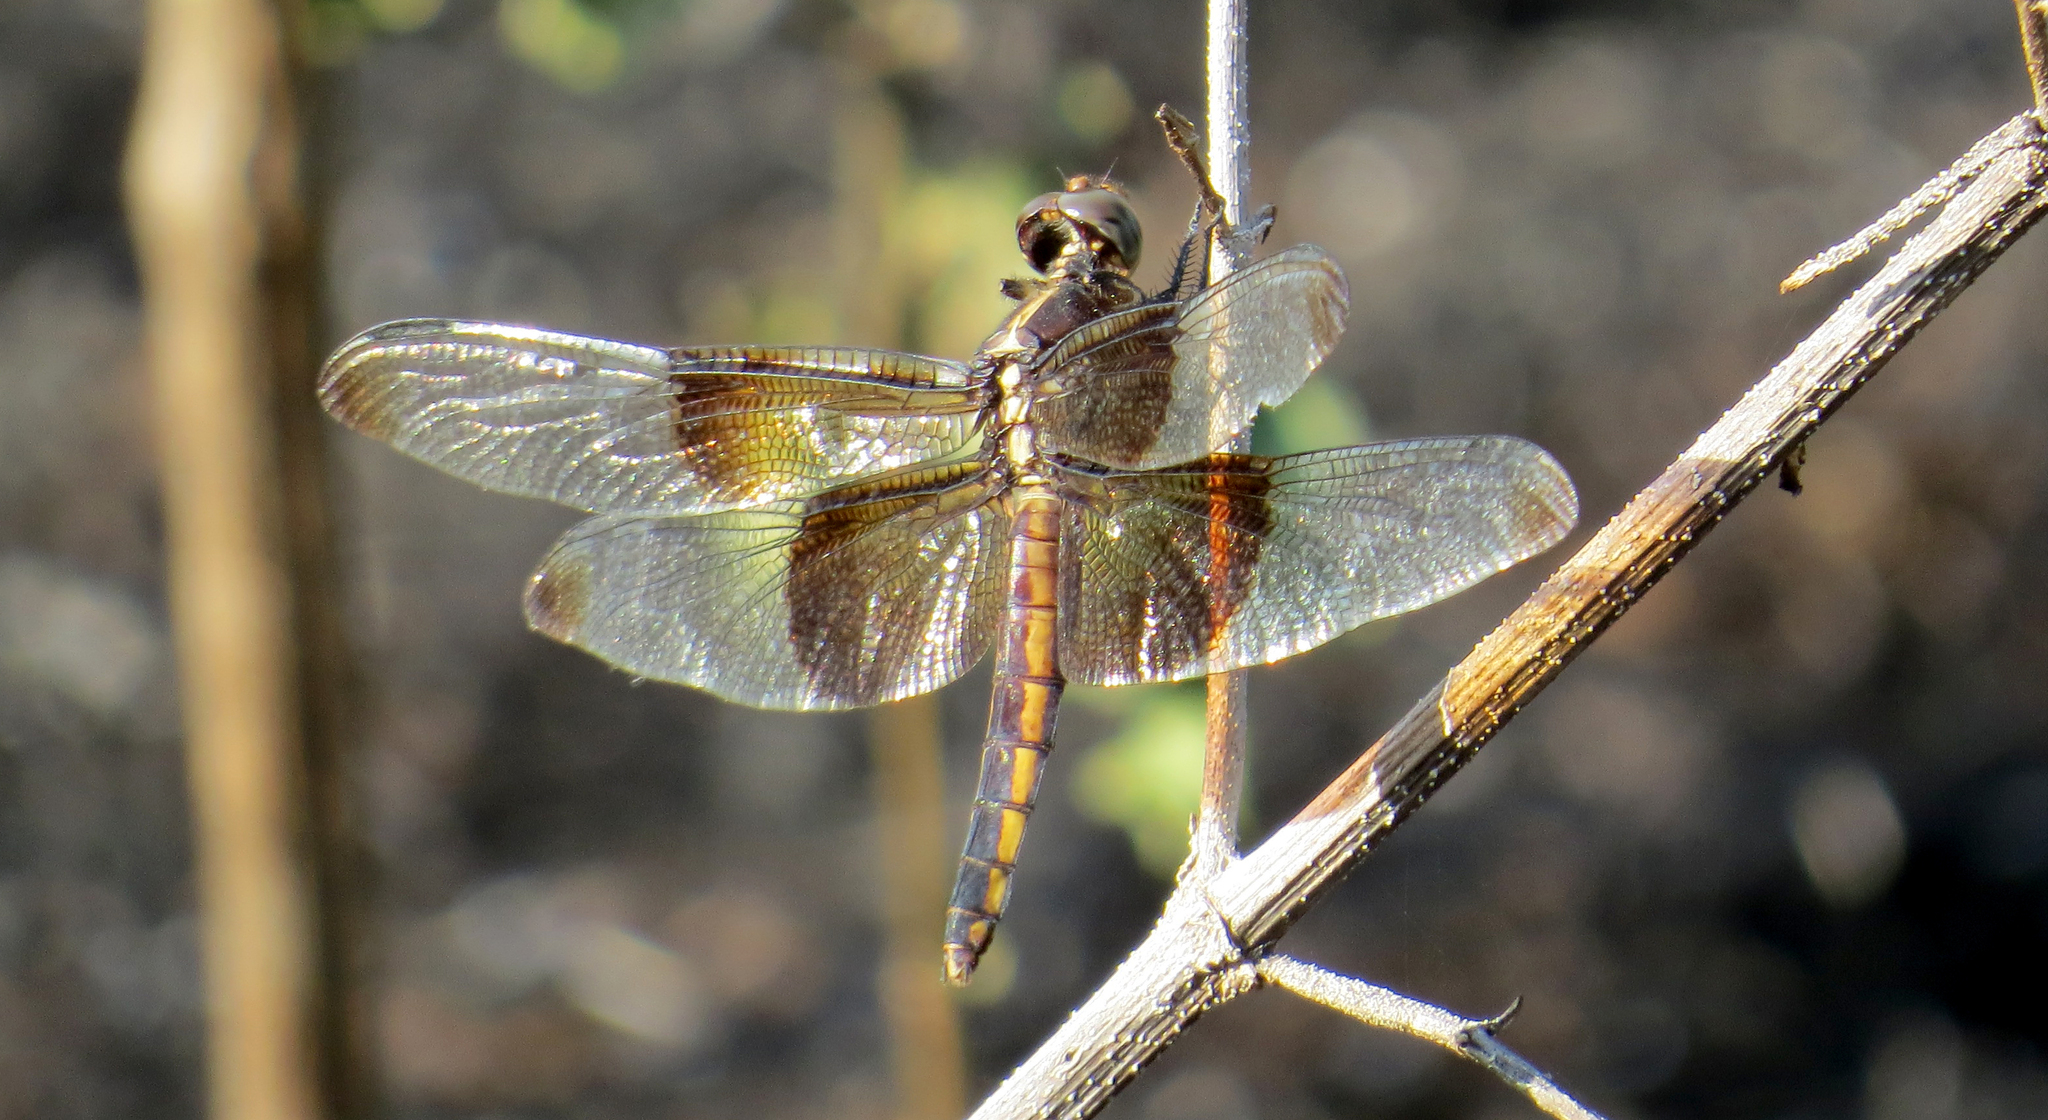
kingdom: Animalia
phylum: Arthropoda
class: Insecta
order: Odonata
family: Libellulidae
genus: Libellula
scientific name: Libellula luctuosa
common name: Widow skimmer
